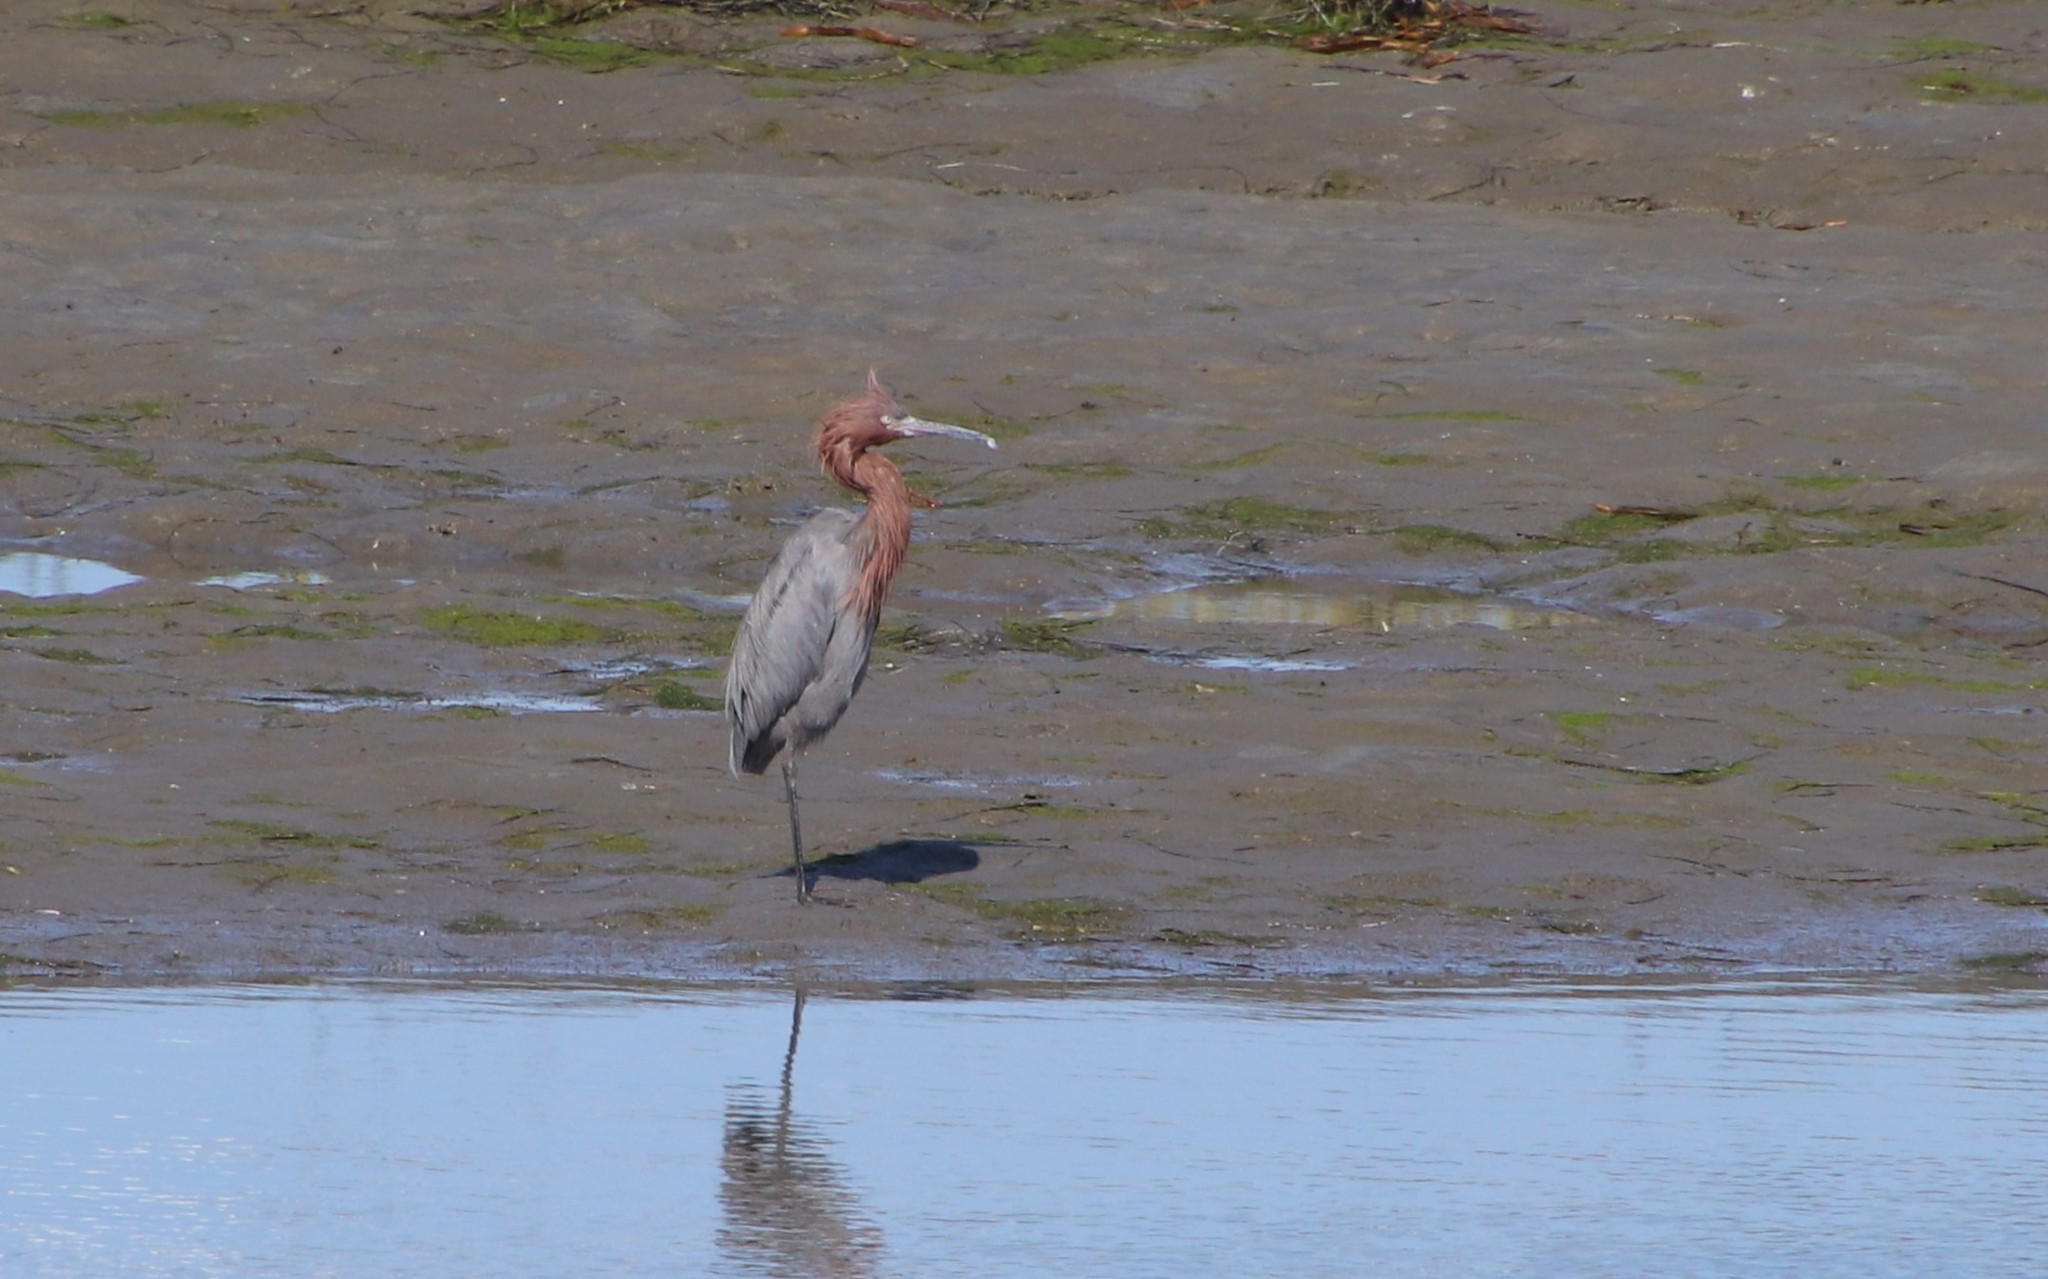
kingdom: Animalia
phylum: Chordata
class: Aves
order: Pelecaniformes
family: Ardeidae
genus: Egretta
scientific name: Egretta rufescens
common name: Reddish egret
